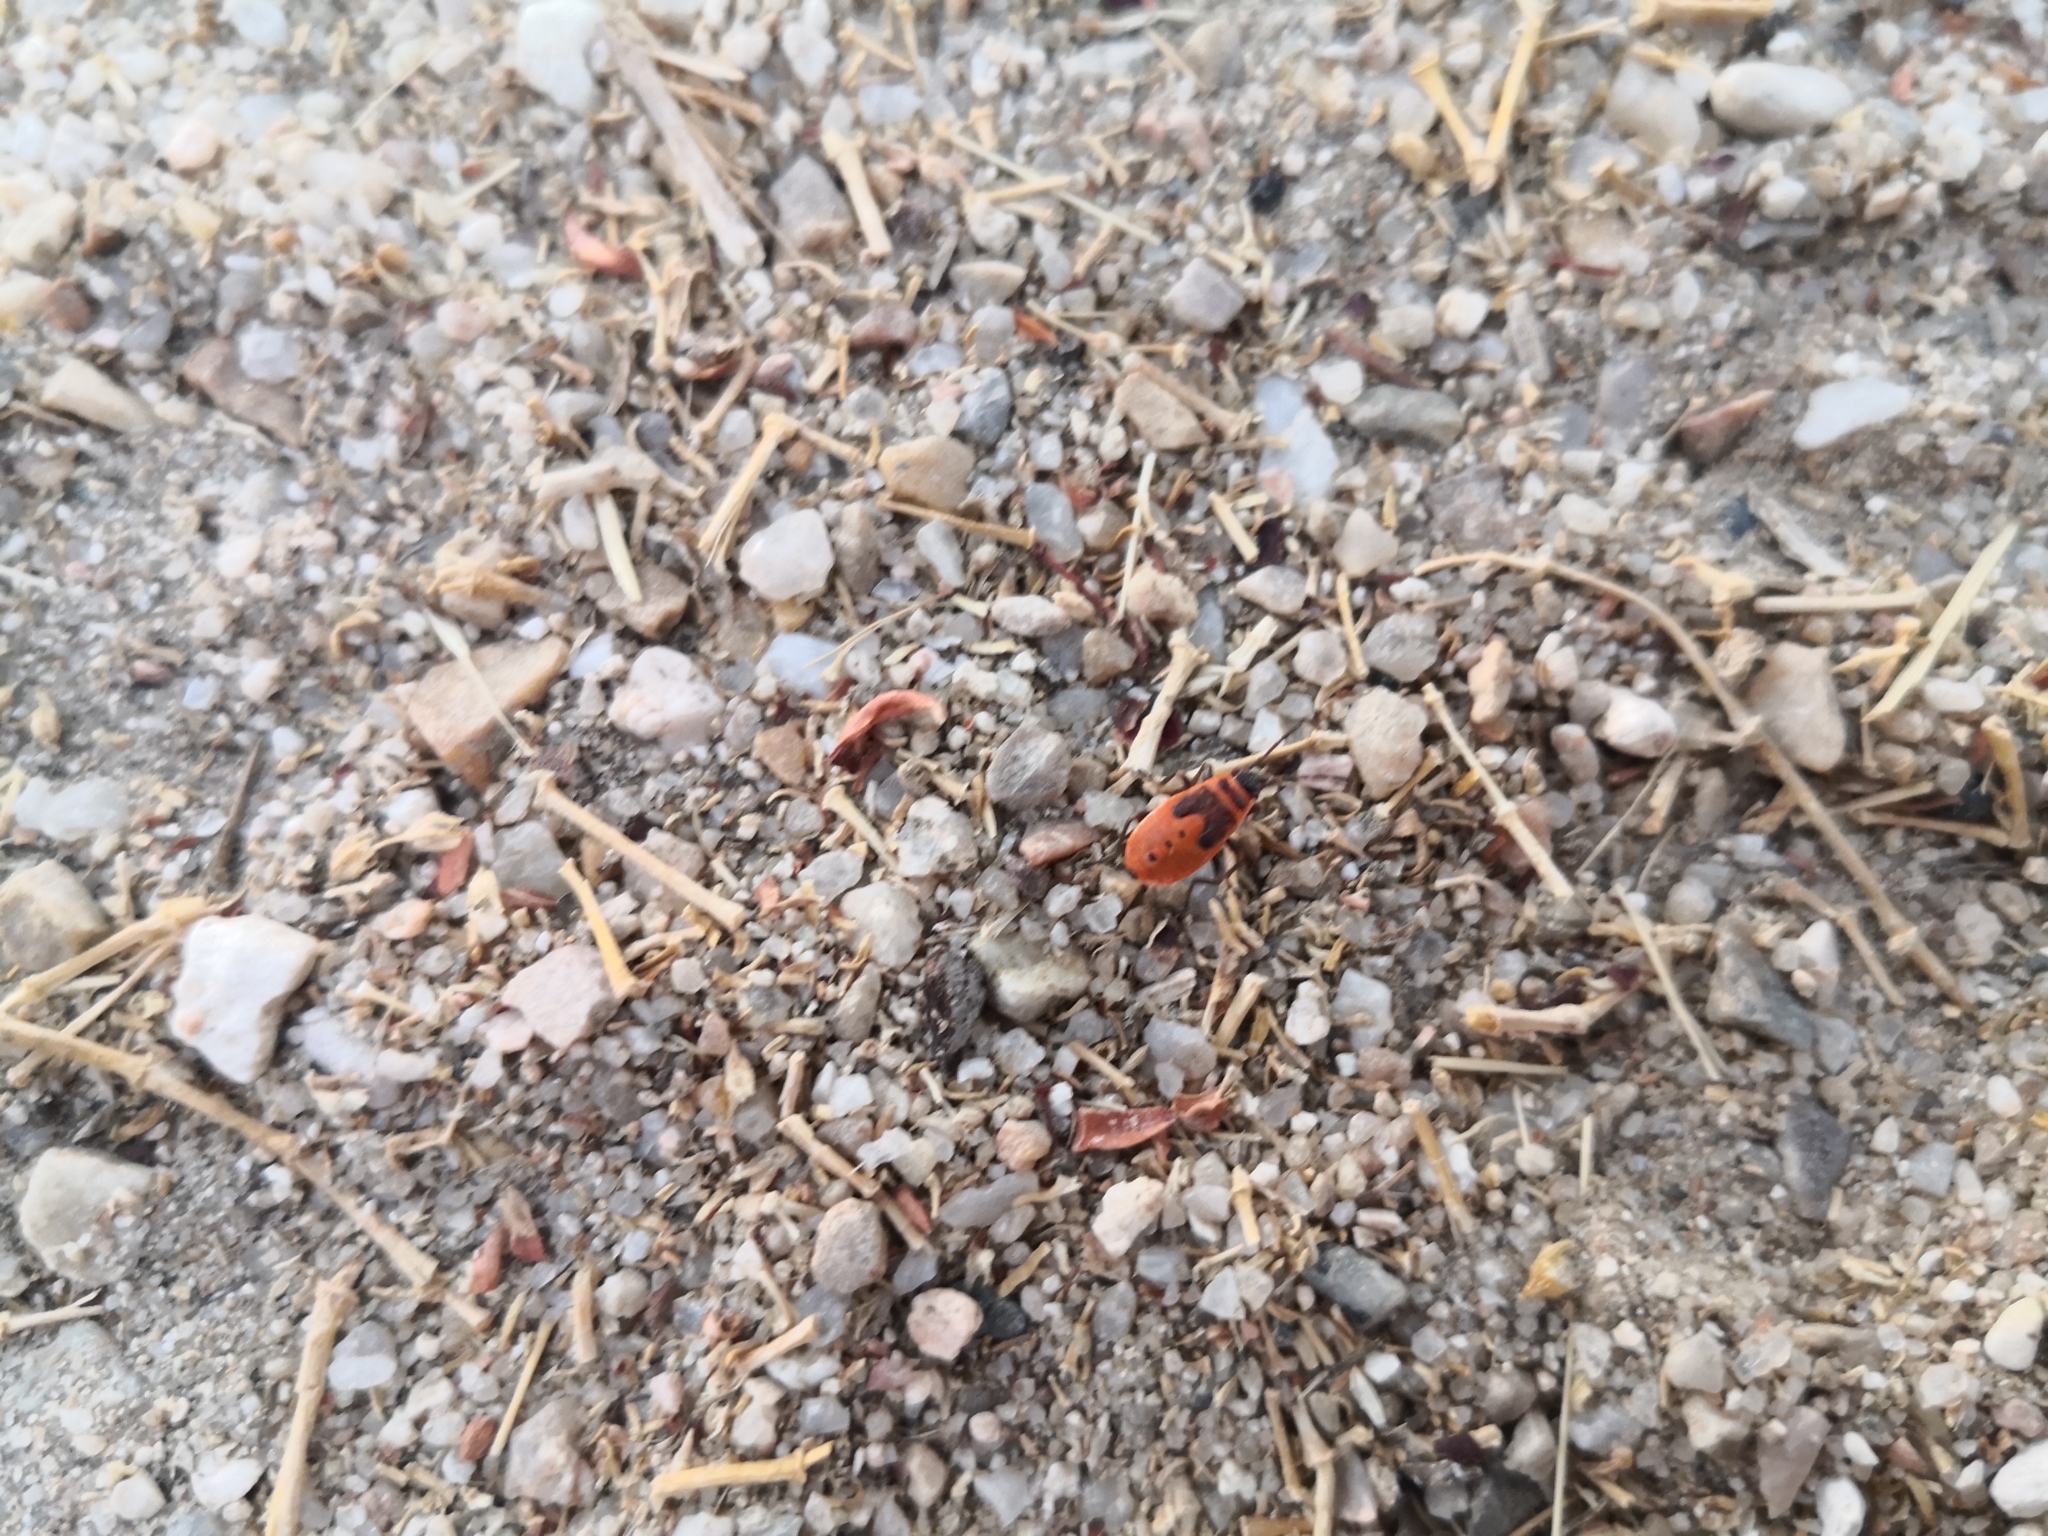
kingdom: Animalia
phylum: Arthropoda
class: Insecta
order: Hemiptera
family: Pyrrhocoridae
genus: Pyrrhocoris
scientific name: Pyrrhocoris apterus
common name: Firebug
